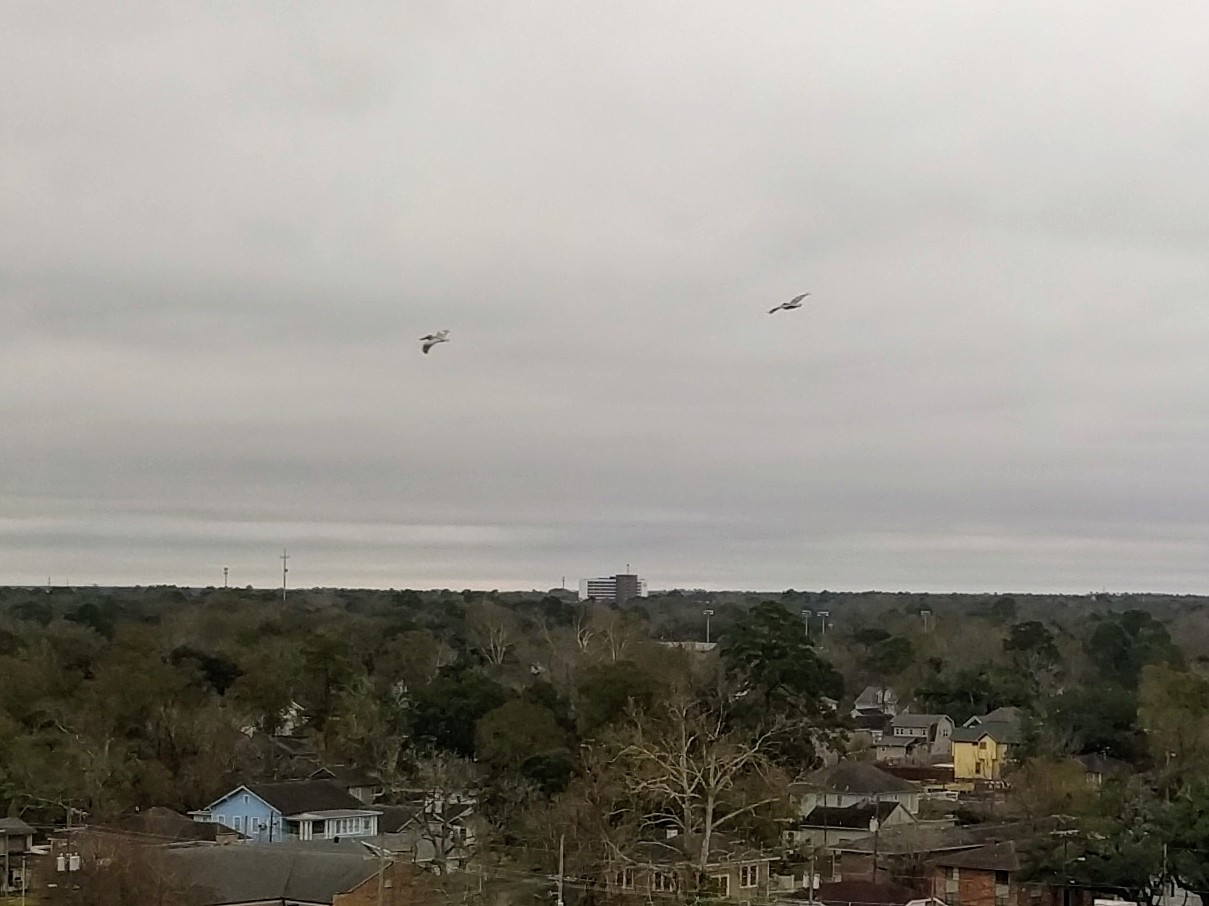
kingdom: Animalia
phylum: Chordata
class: Aves
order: Pelecaniformes
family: Pelecanidae
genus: Pelecanus
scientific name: Pelecanus occidentalis
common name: Brown pelican
